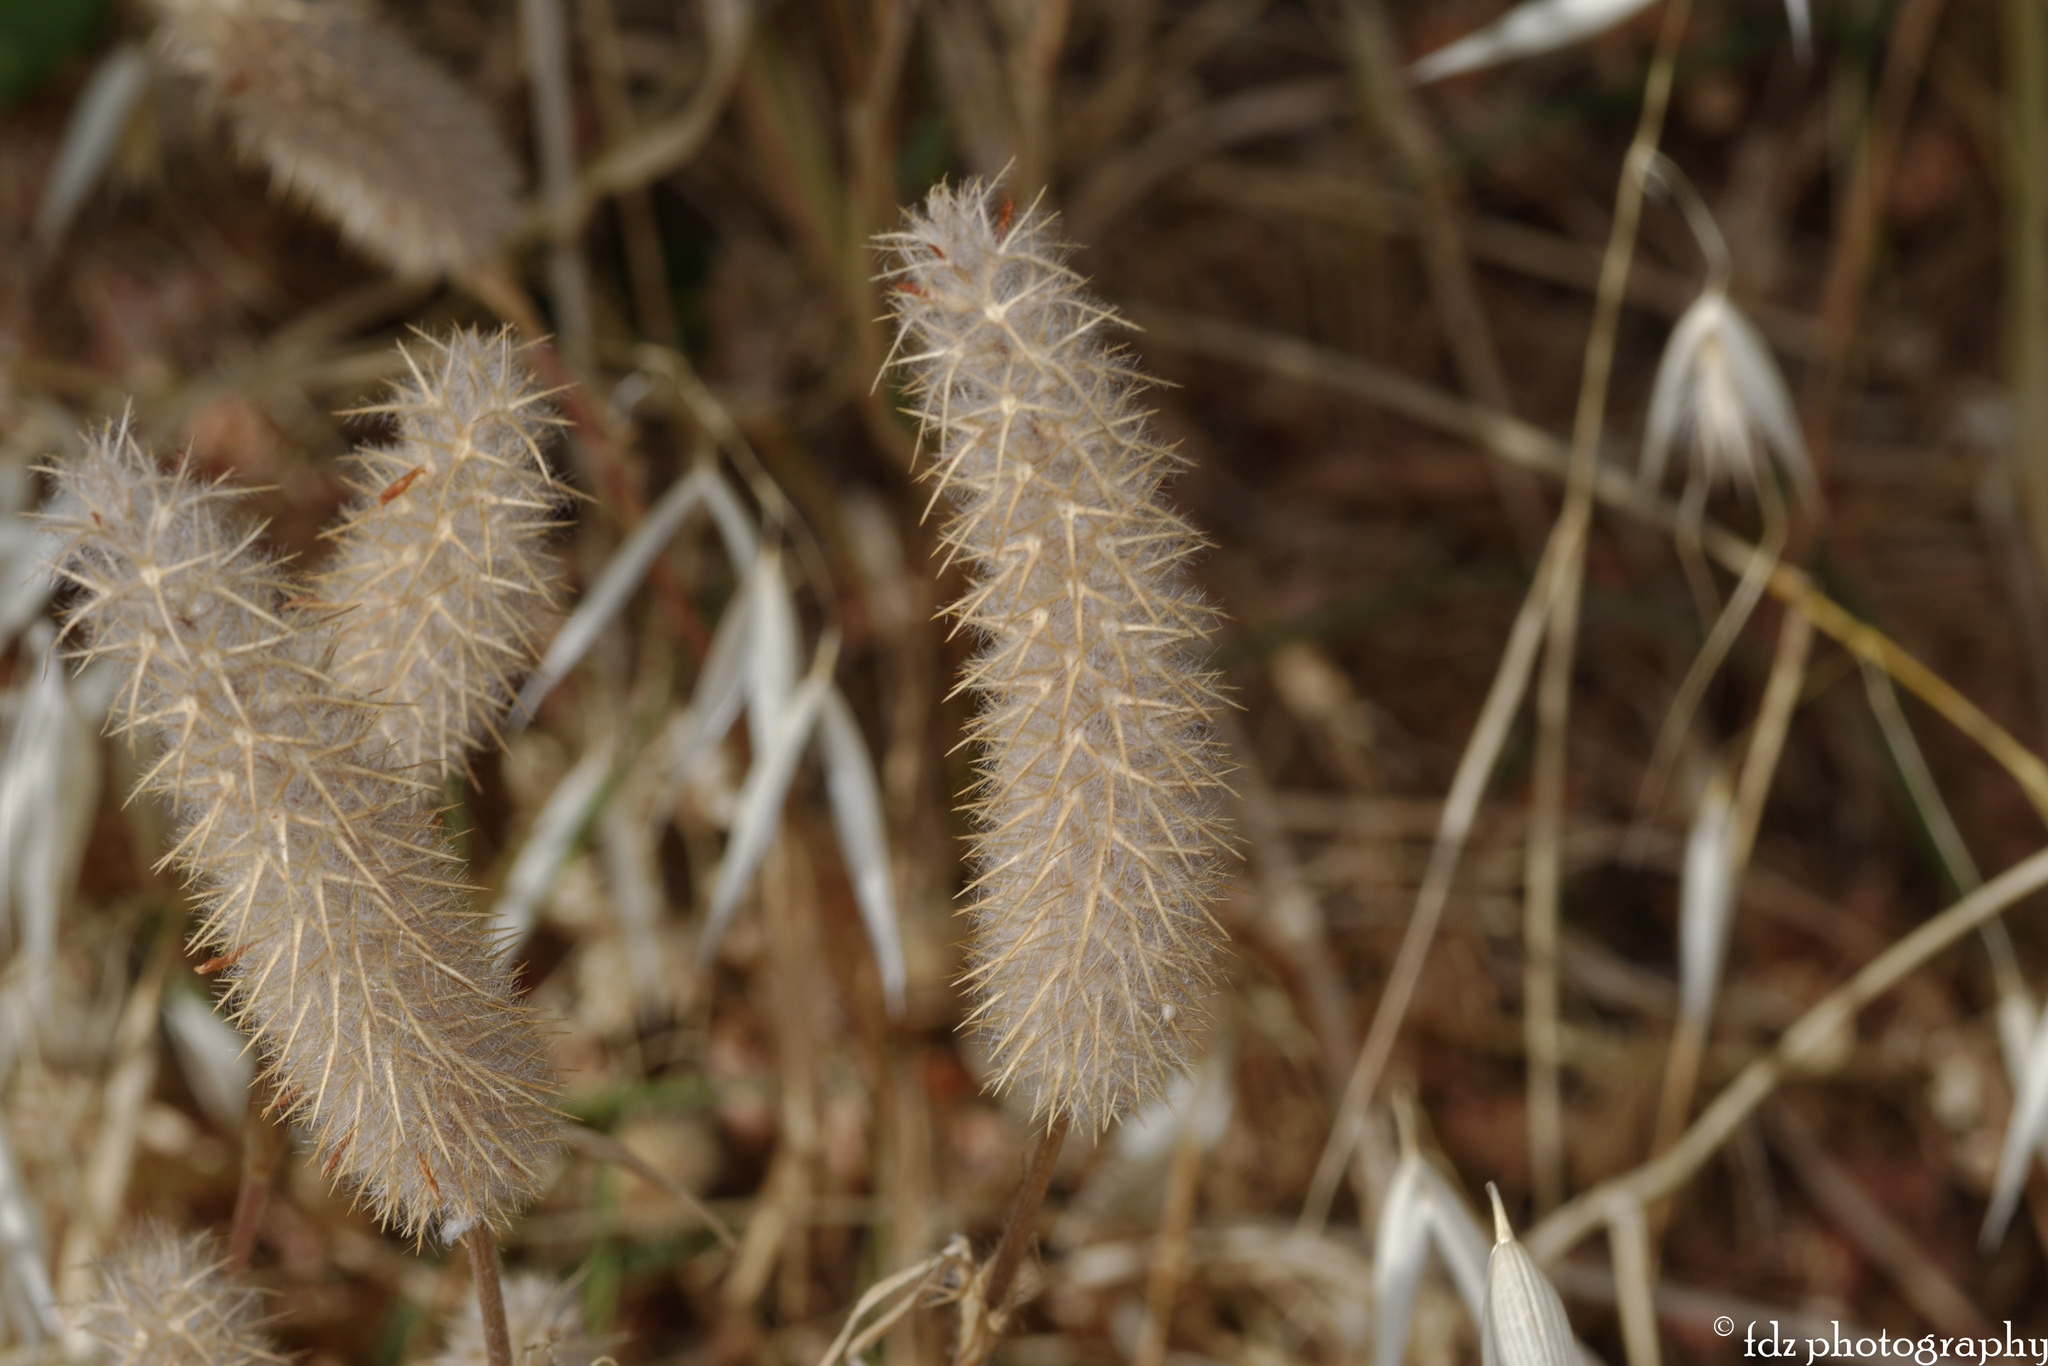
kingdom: Plantae
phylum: Tracheophyta
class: Magnoliopsida
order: Fabales
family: Fabaceae
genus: Trifolium
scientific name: Trifolium angustifolium
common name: Narrow clover
